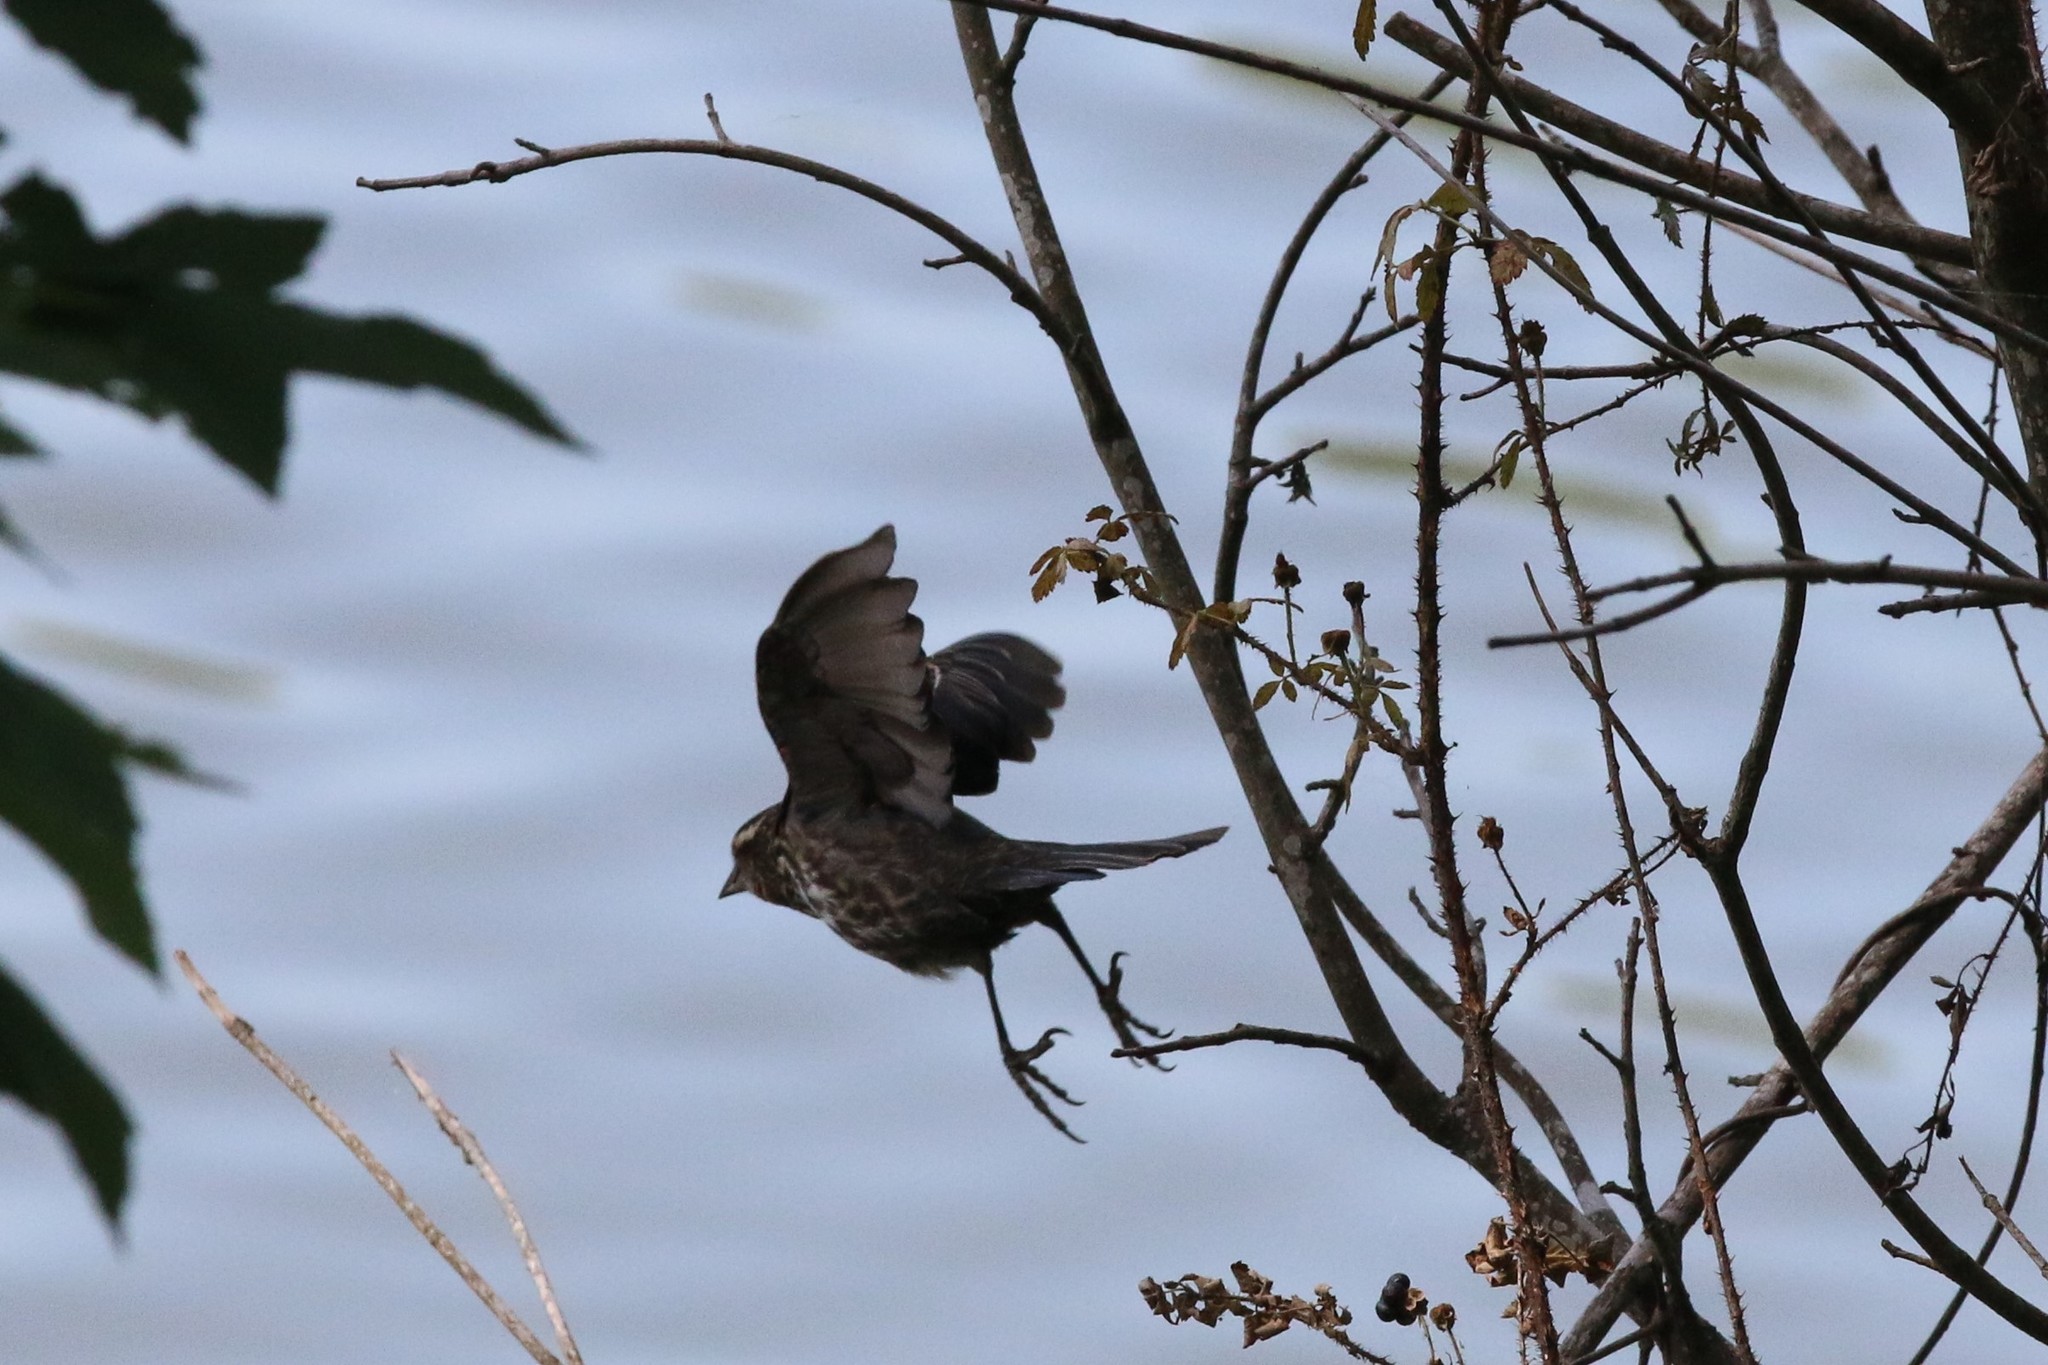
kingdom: Animalia
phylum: Chordata
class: Aves
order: Passeriformes
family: Icteridae
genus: Agelaius
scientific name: Agelaius phoeniceus
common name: Red-winged blackbird
